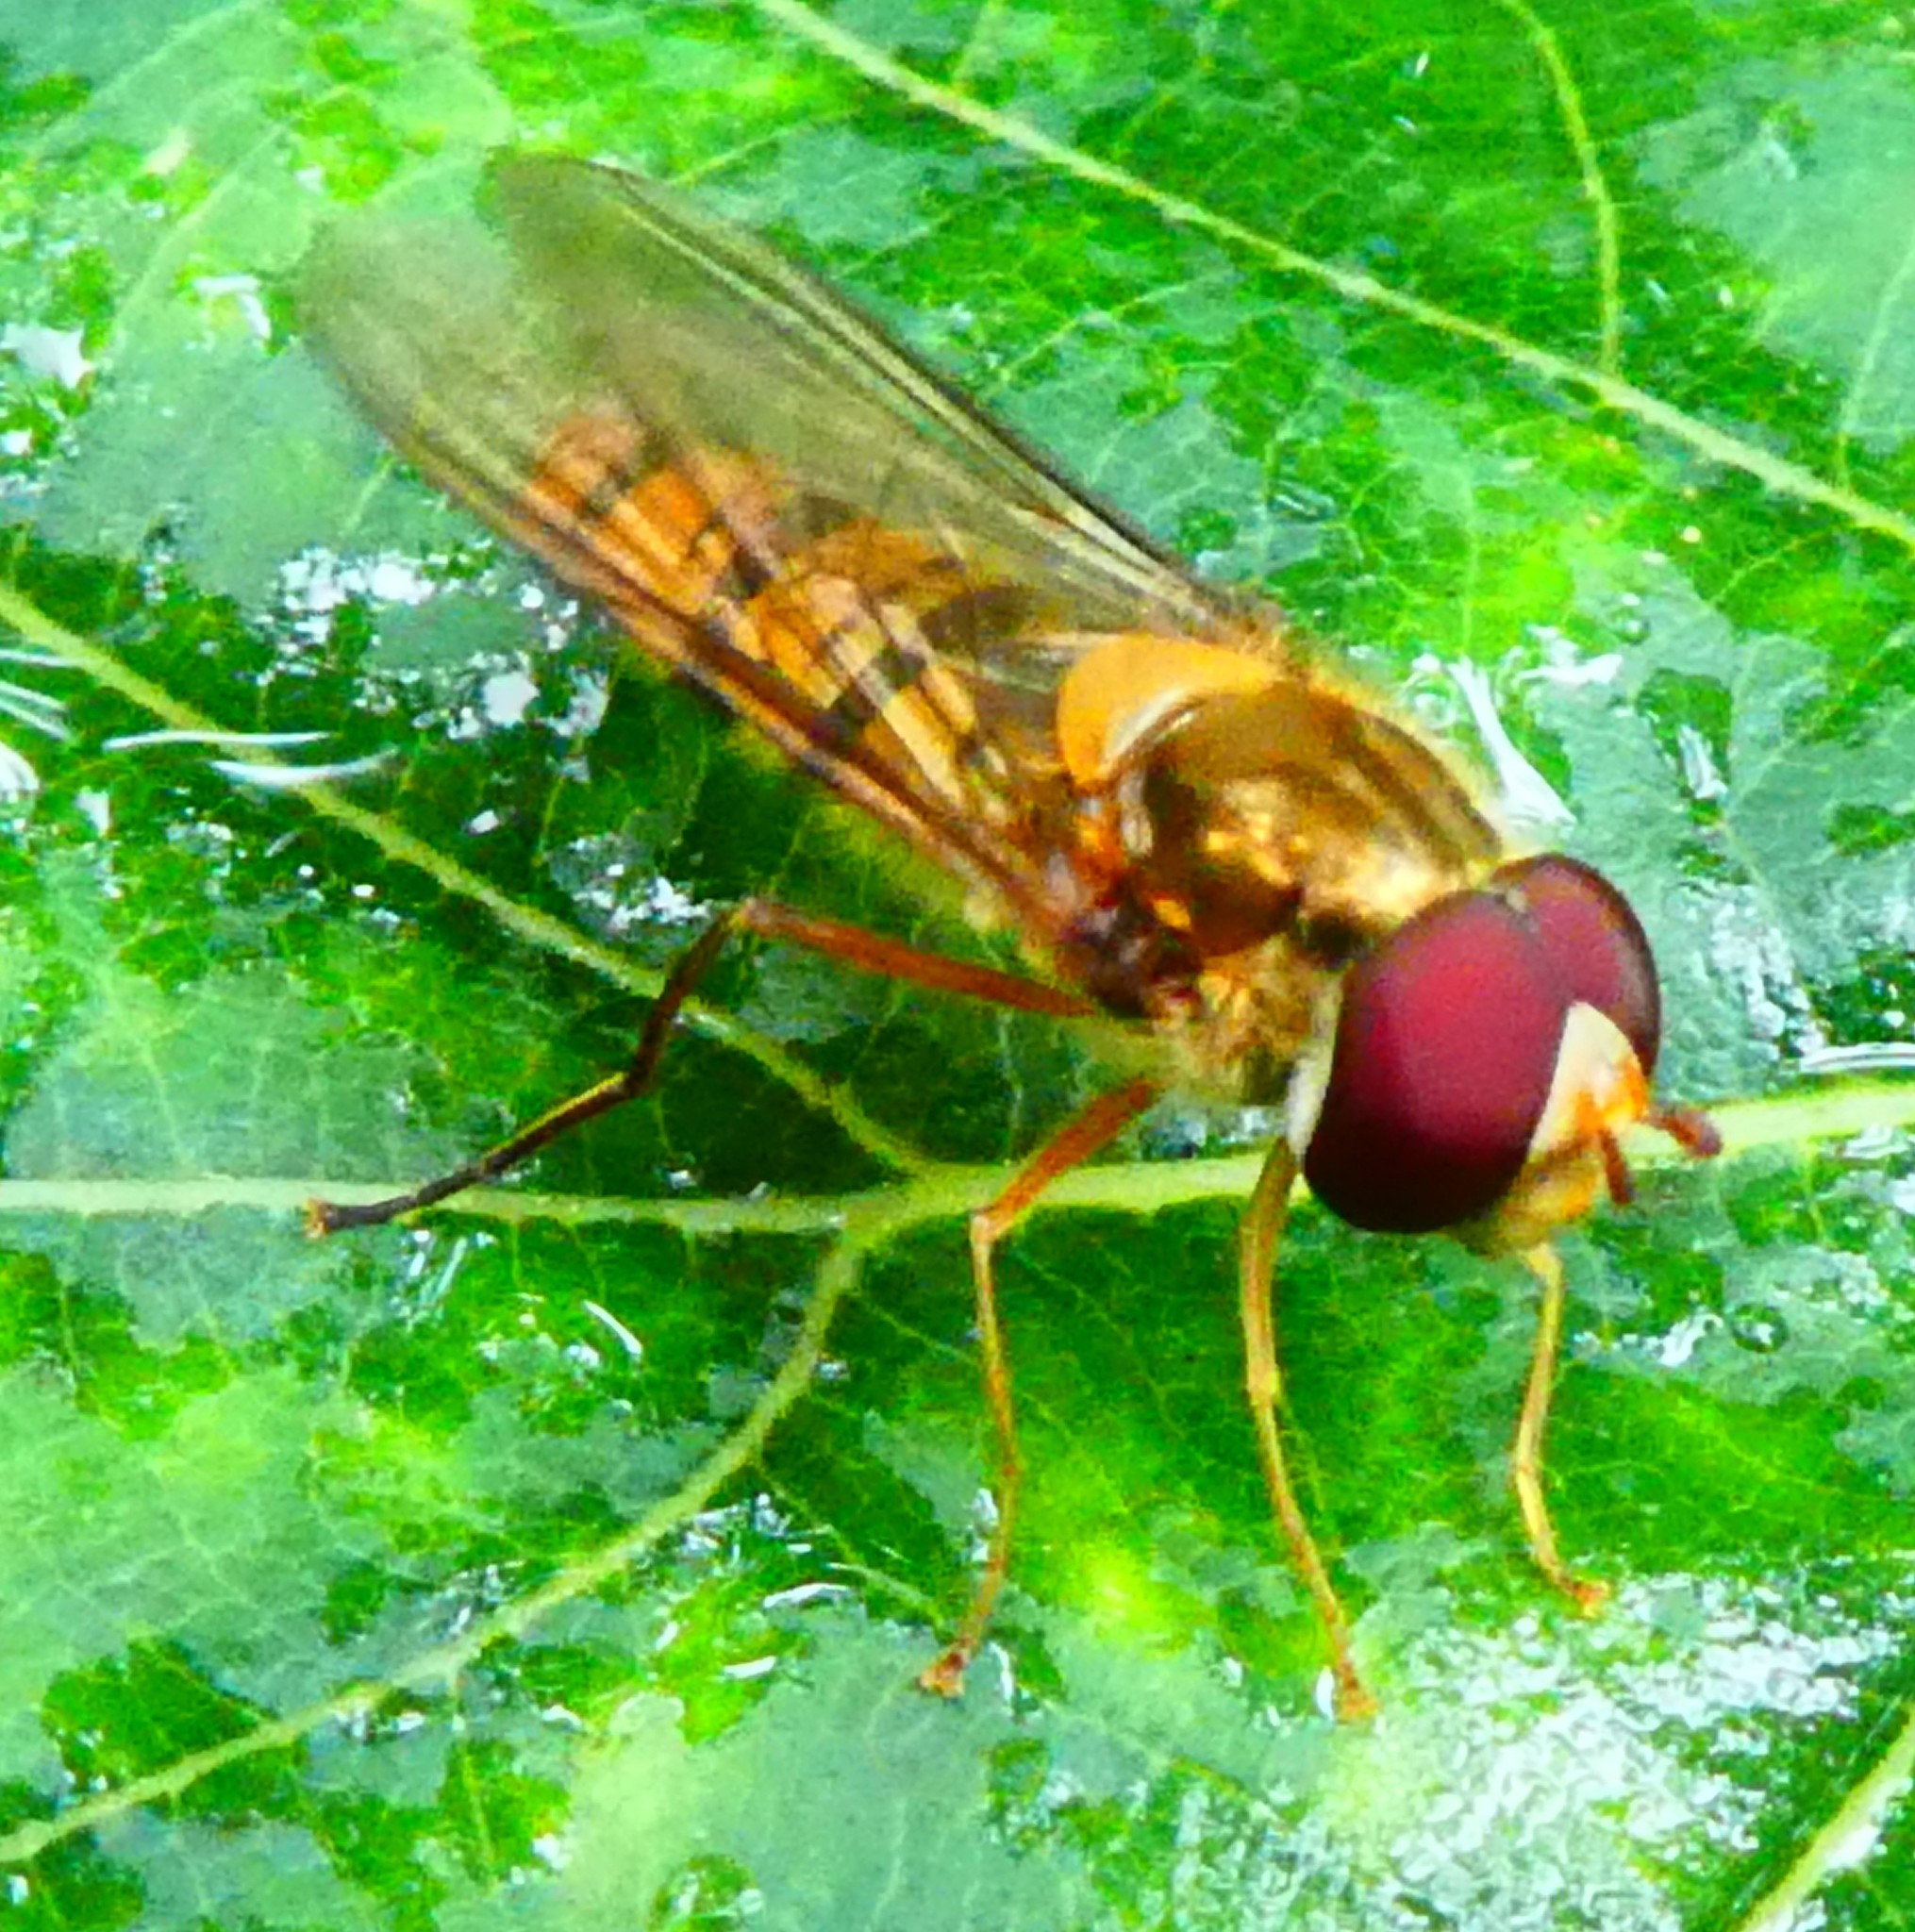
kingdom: Animalia
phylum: Arthropoda
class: Insecta
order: Diptera
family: Syrphidae
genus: Episyrphus
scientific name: Episyrphus balteatus
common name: Marmalade hoverfly
